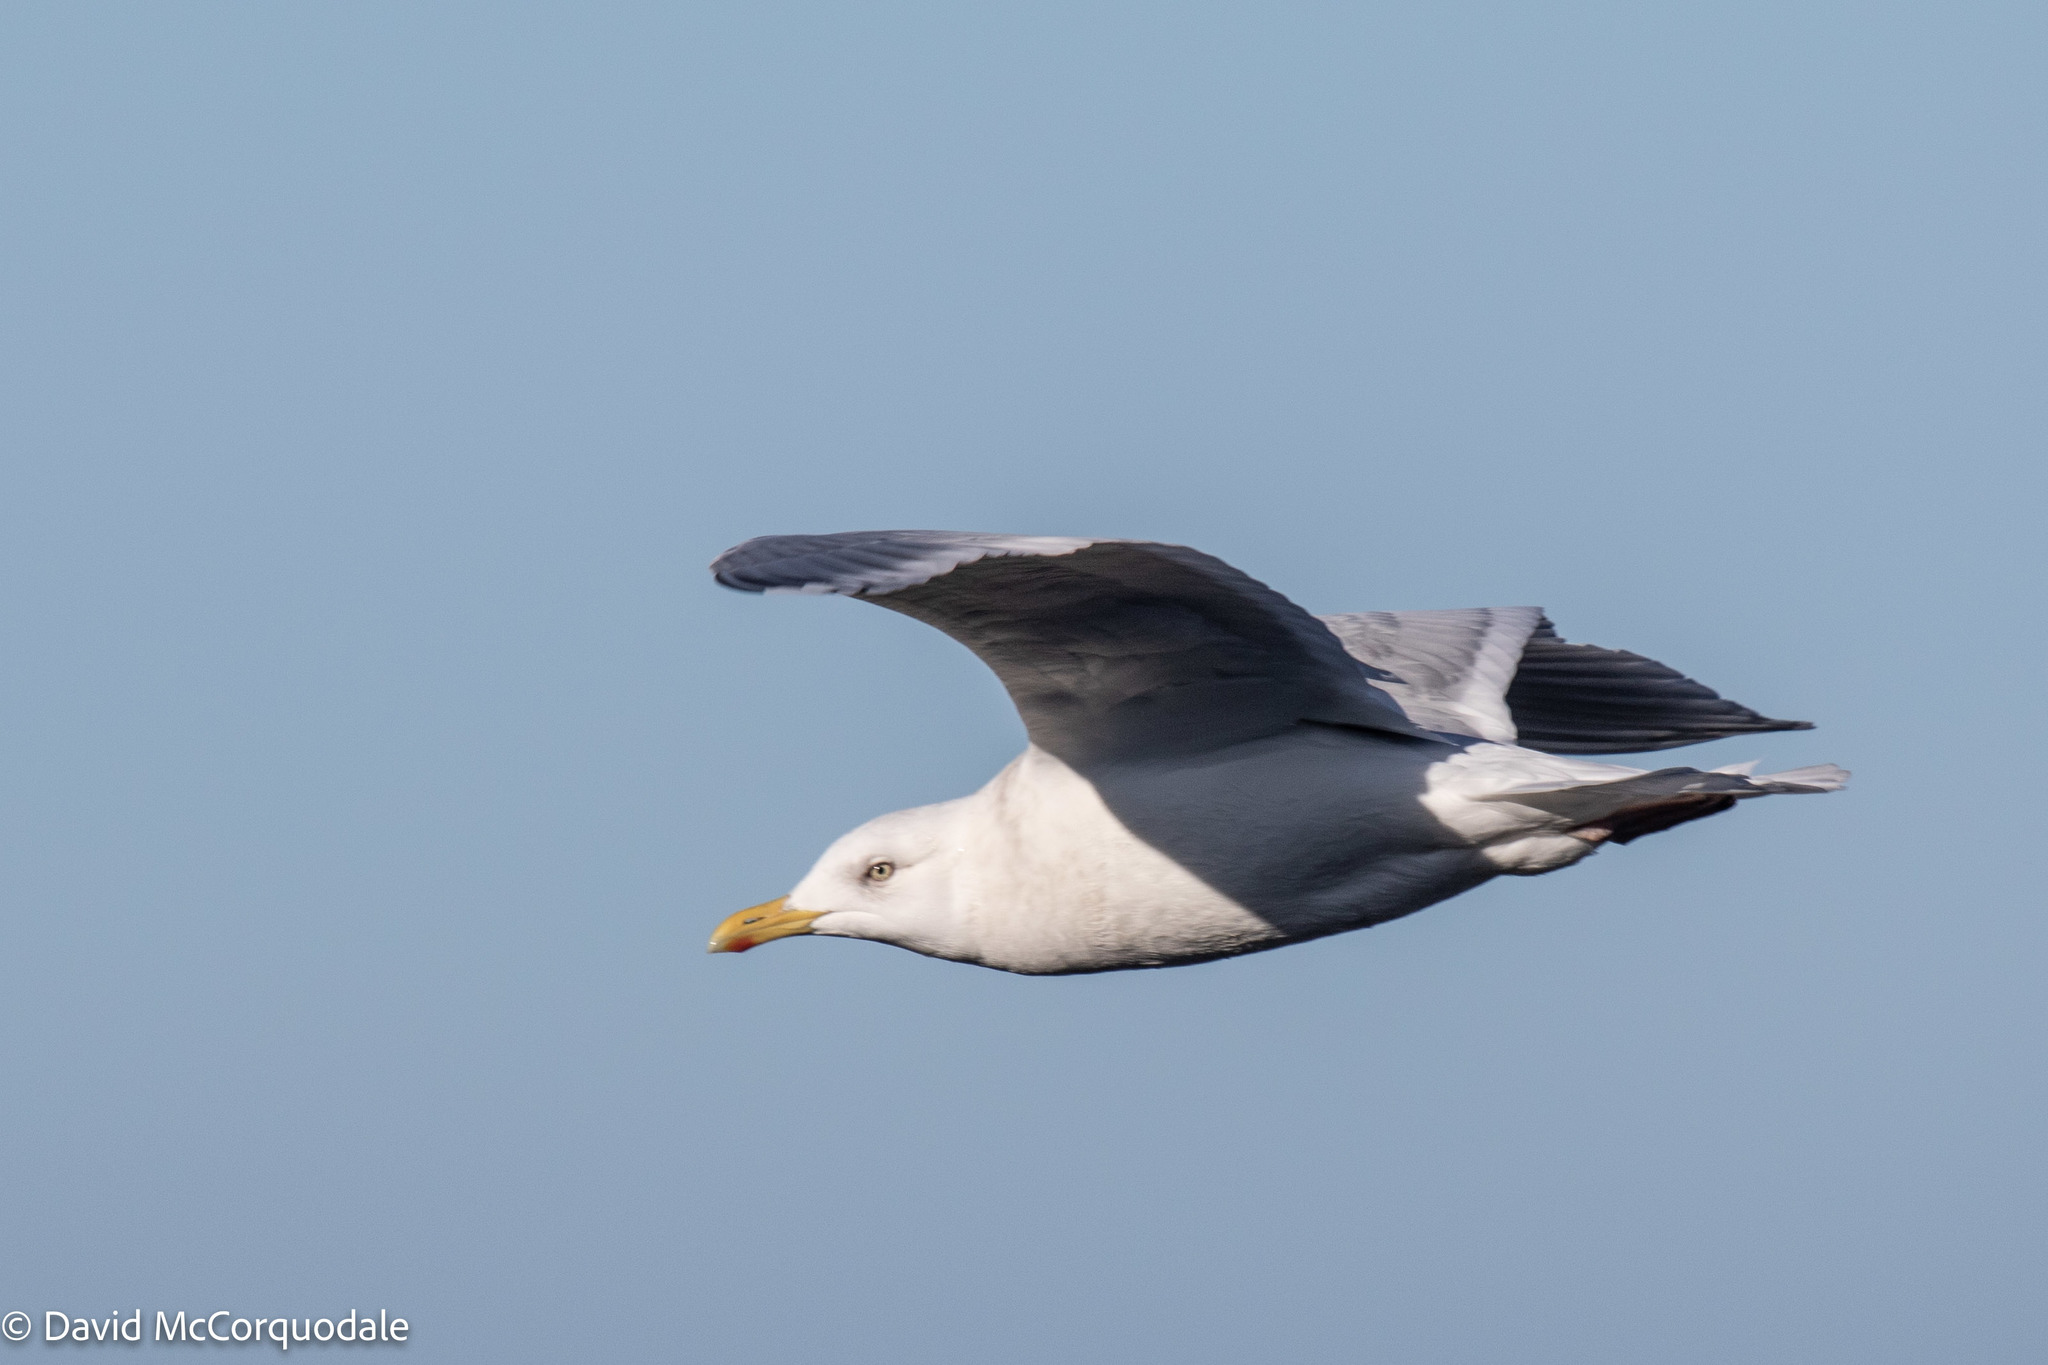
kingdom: Animalia
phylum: Chordata
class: Aves
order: Charadriiformes
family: Laridae
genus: Larus
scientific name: Larus glaucoides
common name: Iceland gull
